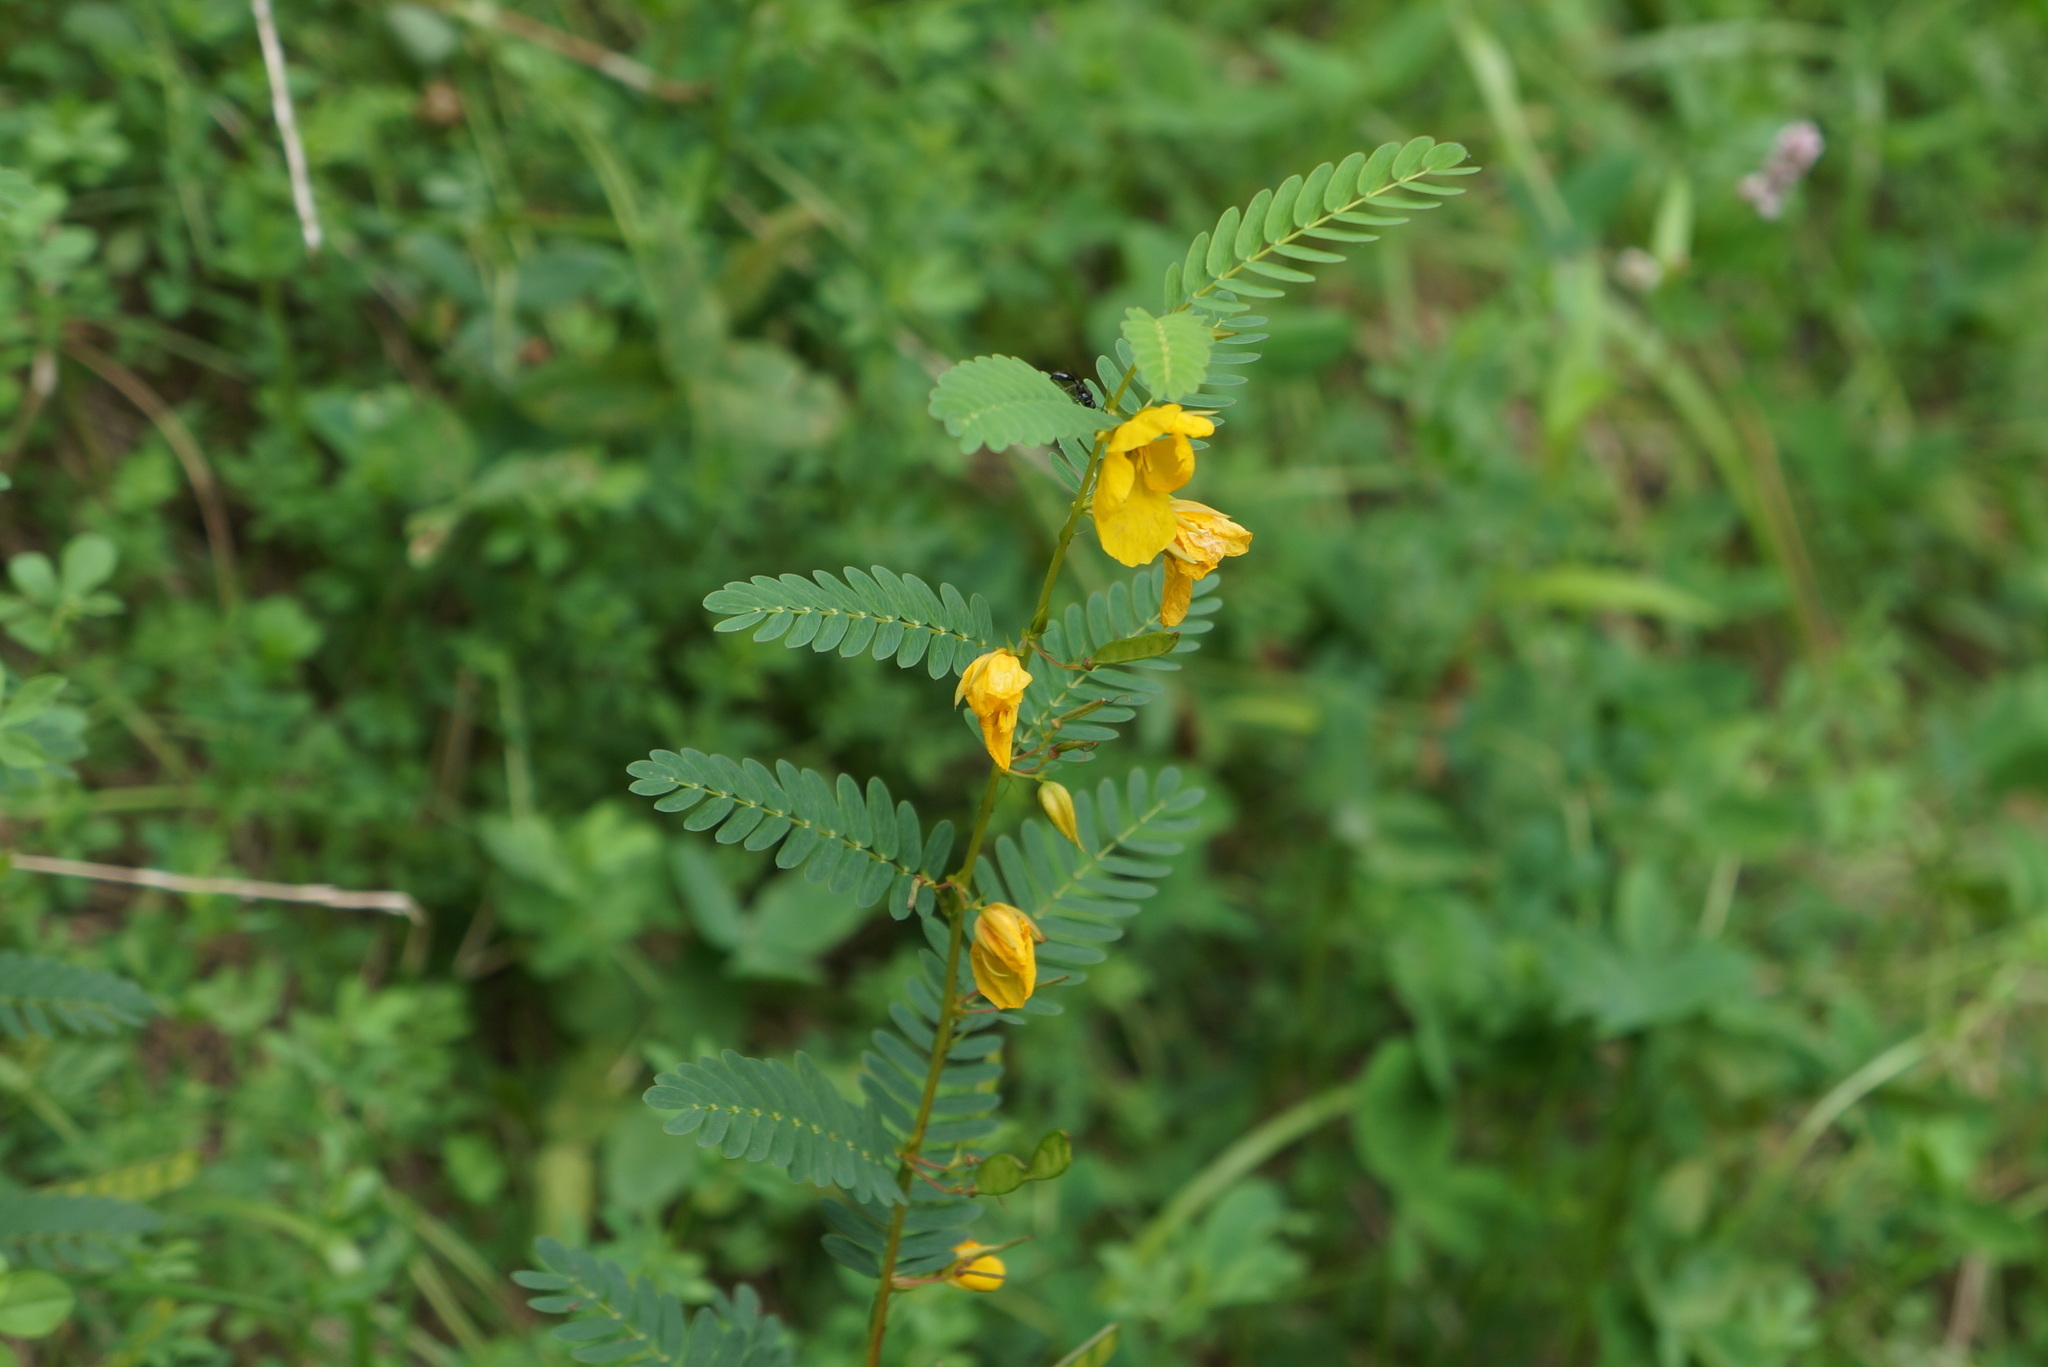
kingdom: Plantae
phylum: Tracheophyta
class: Magnoliopsida
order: Fabales
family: Fabaceae
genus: Chamaecrista
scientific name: Chamaecrista fasciculata
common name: Golden cassia
